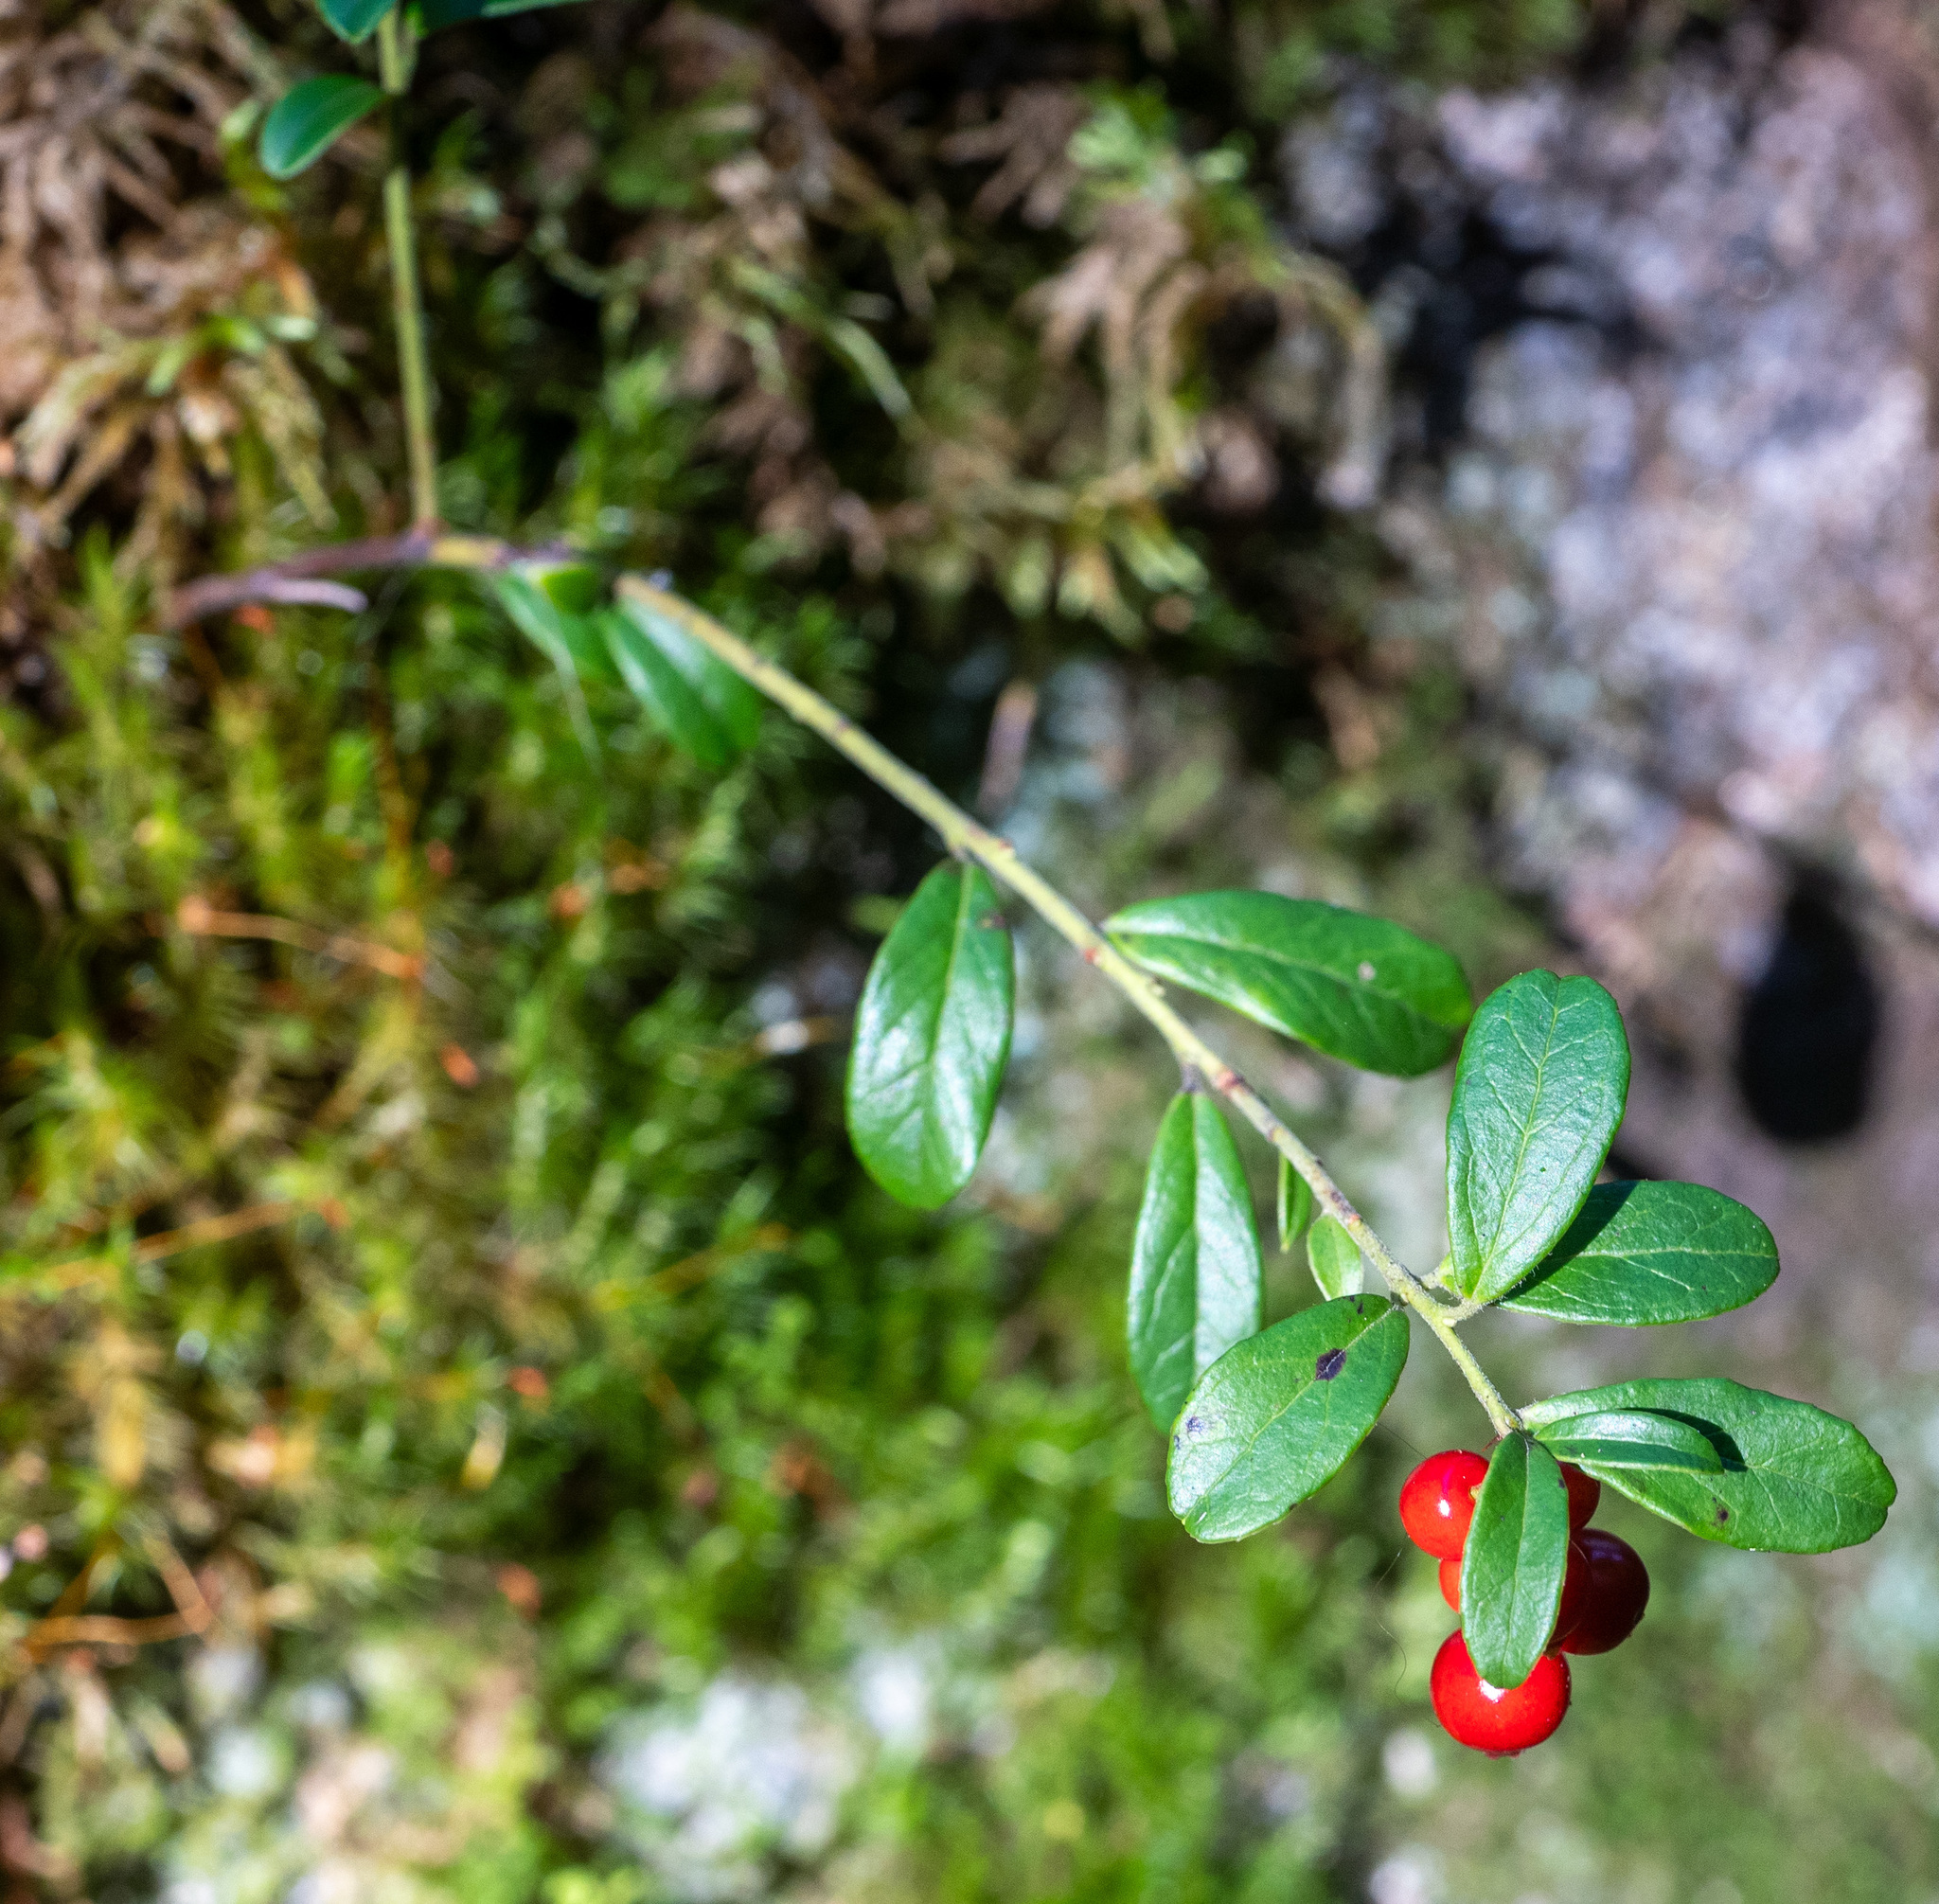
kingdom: Plantae
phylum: Tracheophyta
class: Magnoliopsida
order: Ericales
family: Ericaceae
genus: Vaccinium
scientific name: Vaccinium vitis-idaea
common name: Cowberry
